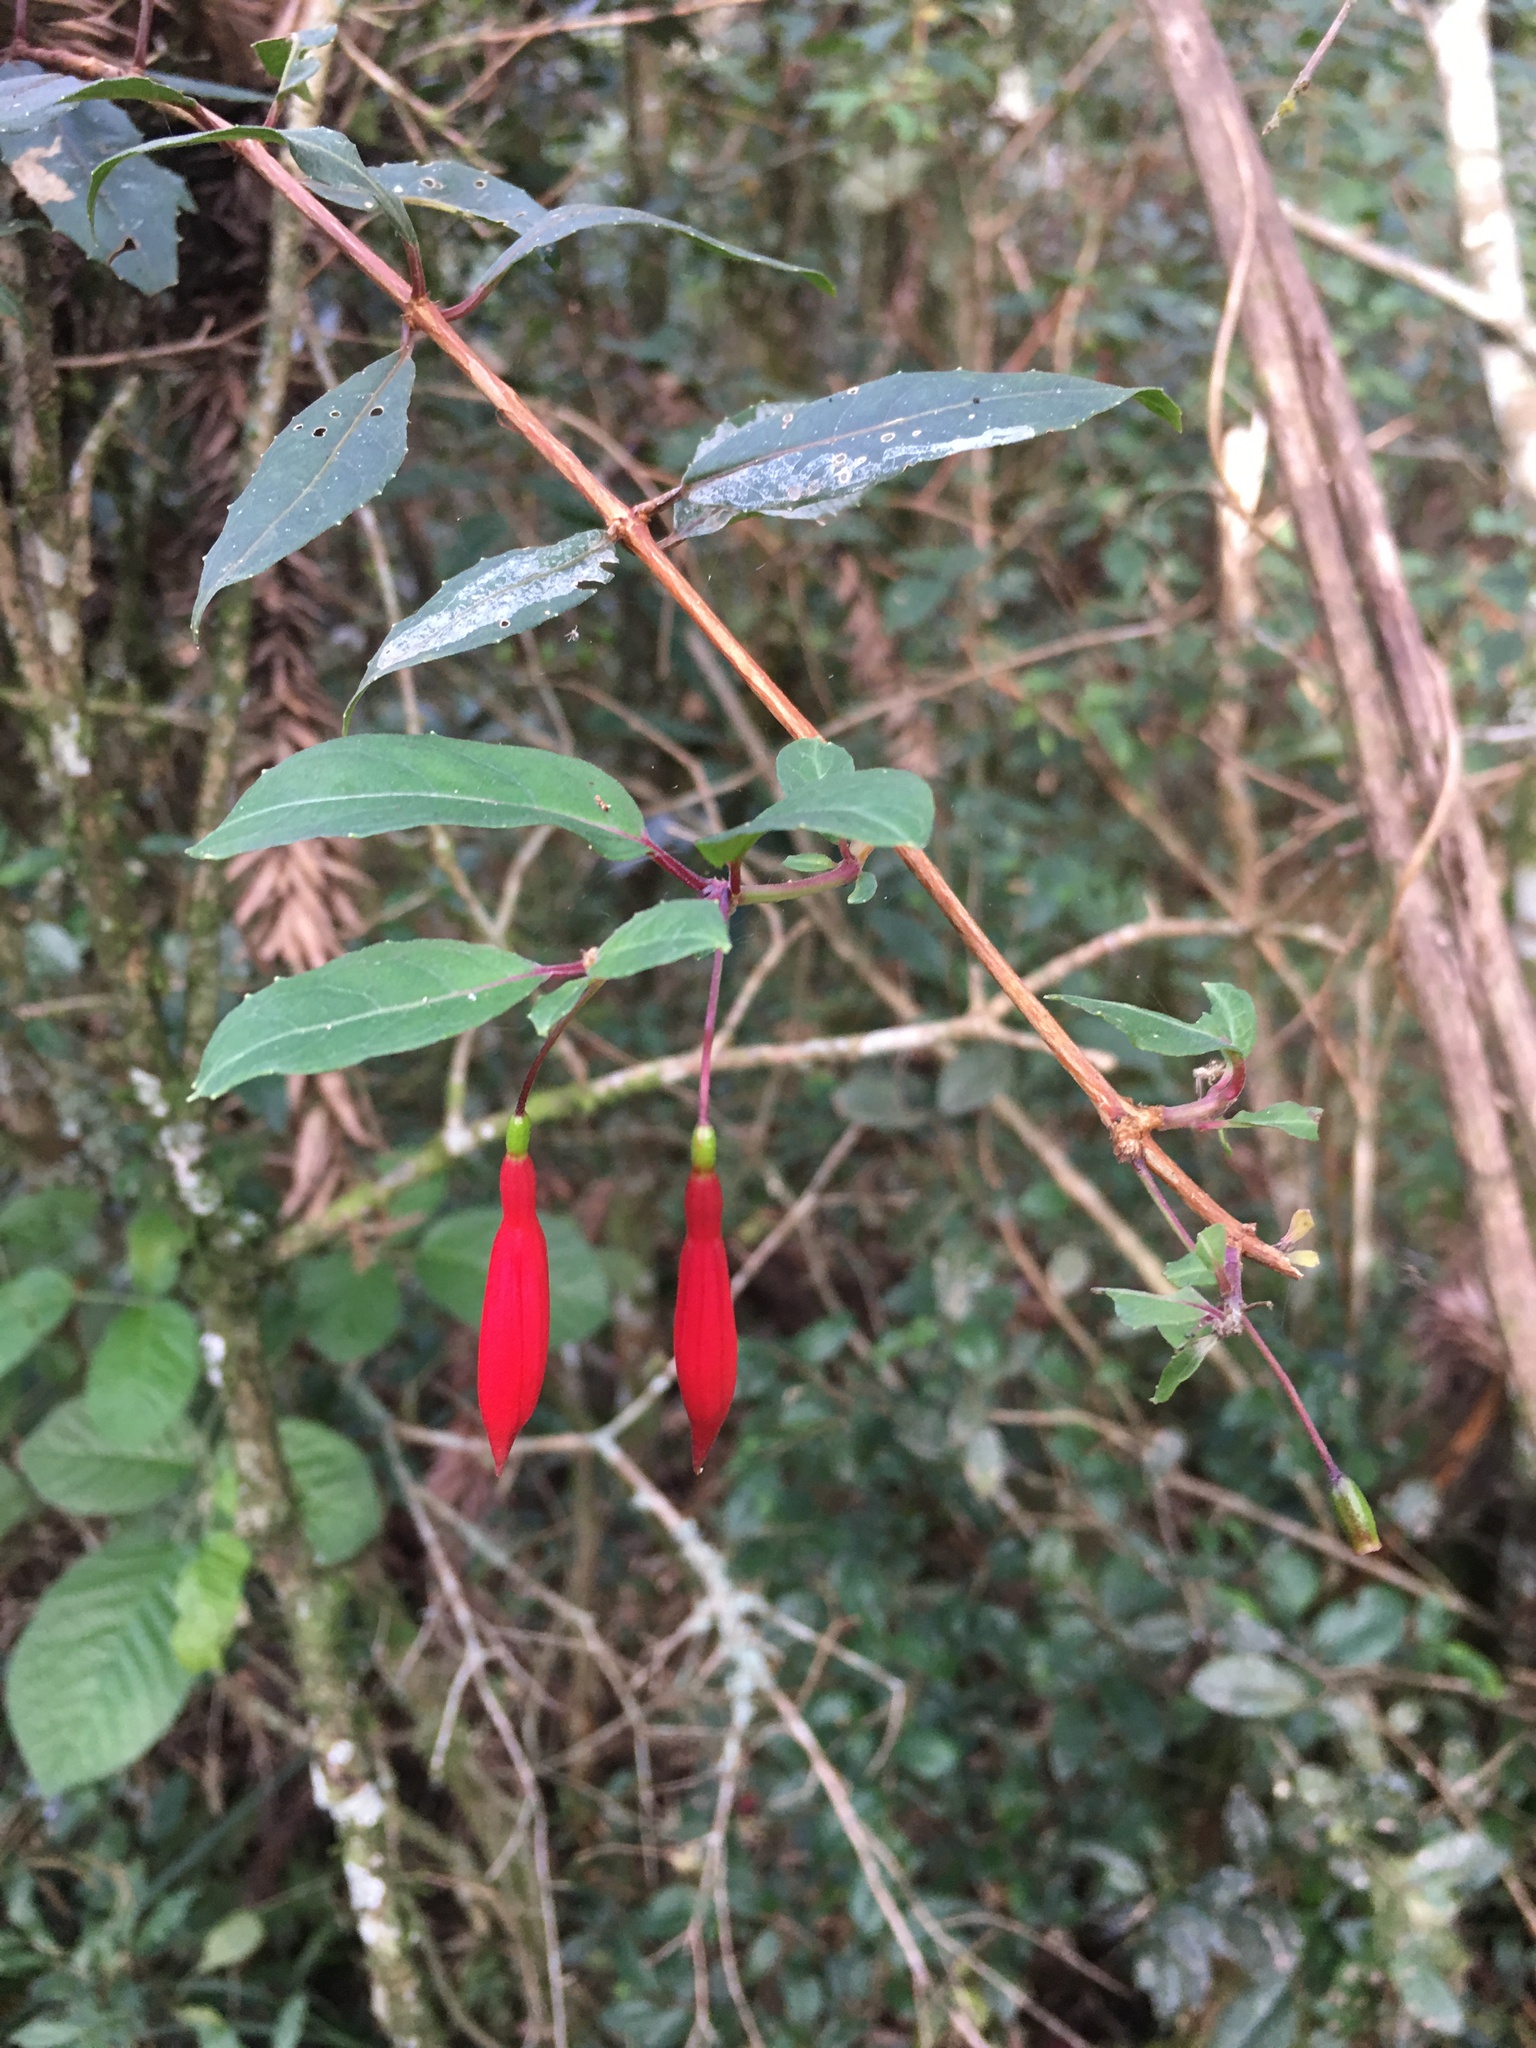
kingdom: Plantae
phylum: Tracheophyta
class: Magnoliopsida
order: Myrtales
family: Onagraceae
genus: Fuchsia
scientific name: Fuchsia regia
